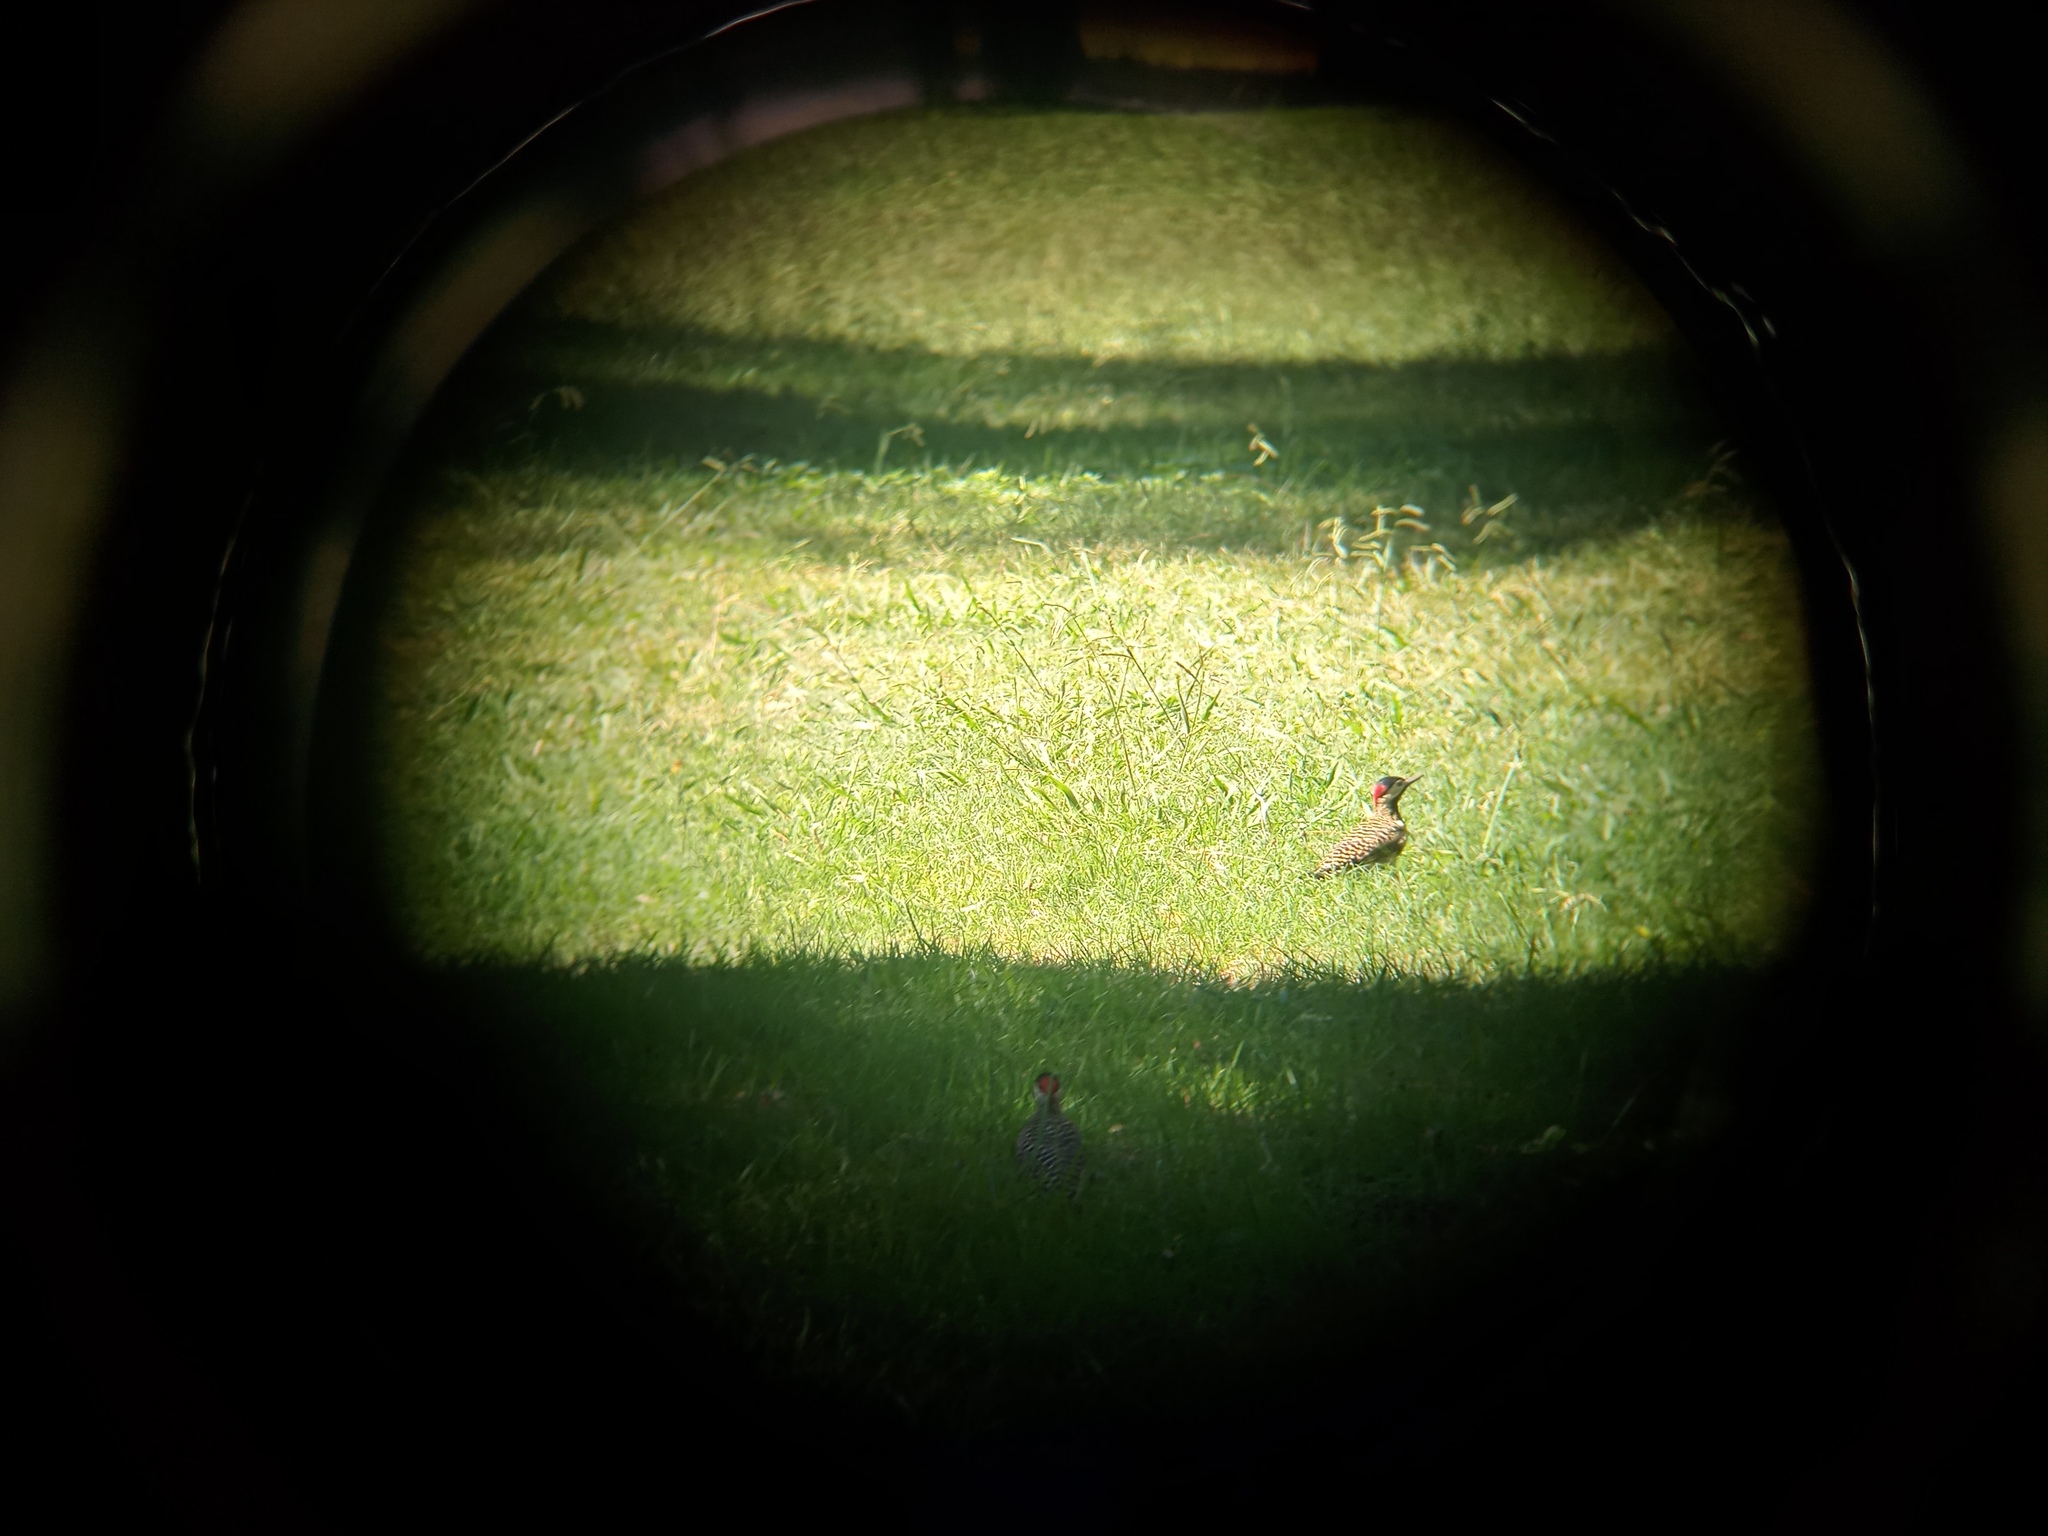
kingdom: Animalia
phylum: Chordata
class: Aves
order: Piciformes
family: Picidae
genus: Colaptes
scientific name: Colaptes melanochloros
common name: Green-barred woodpecker
